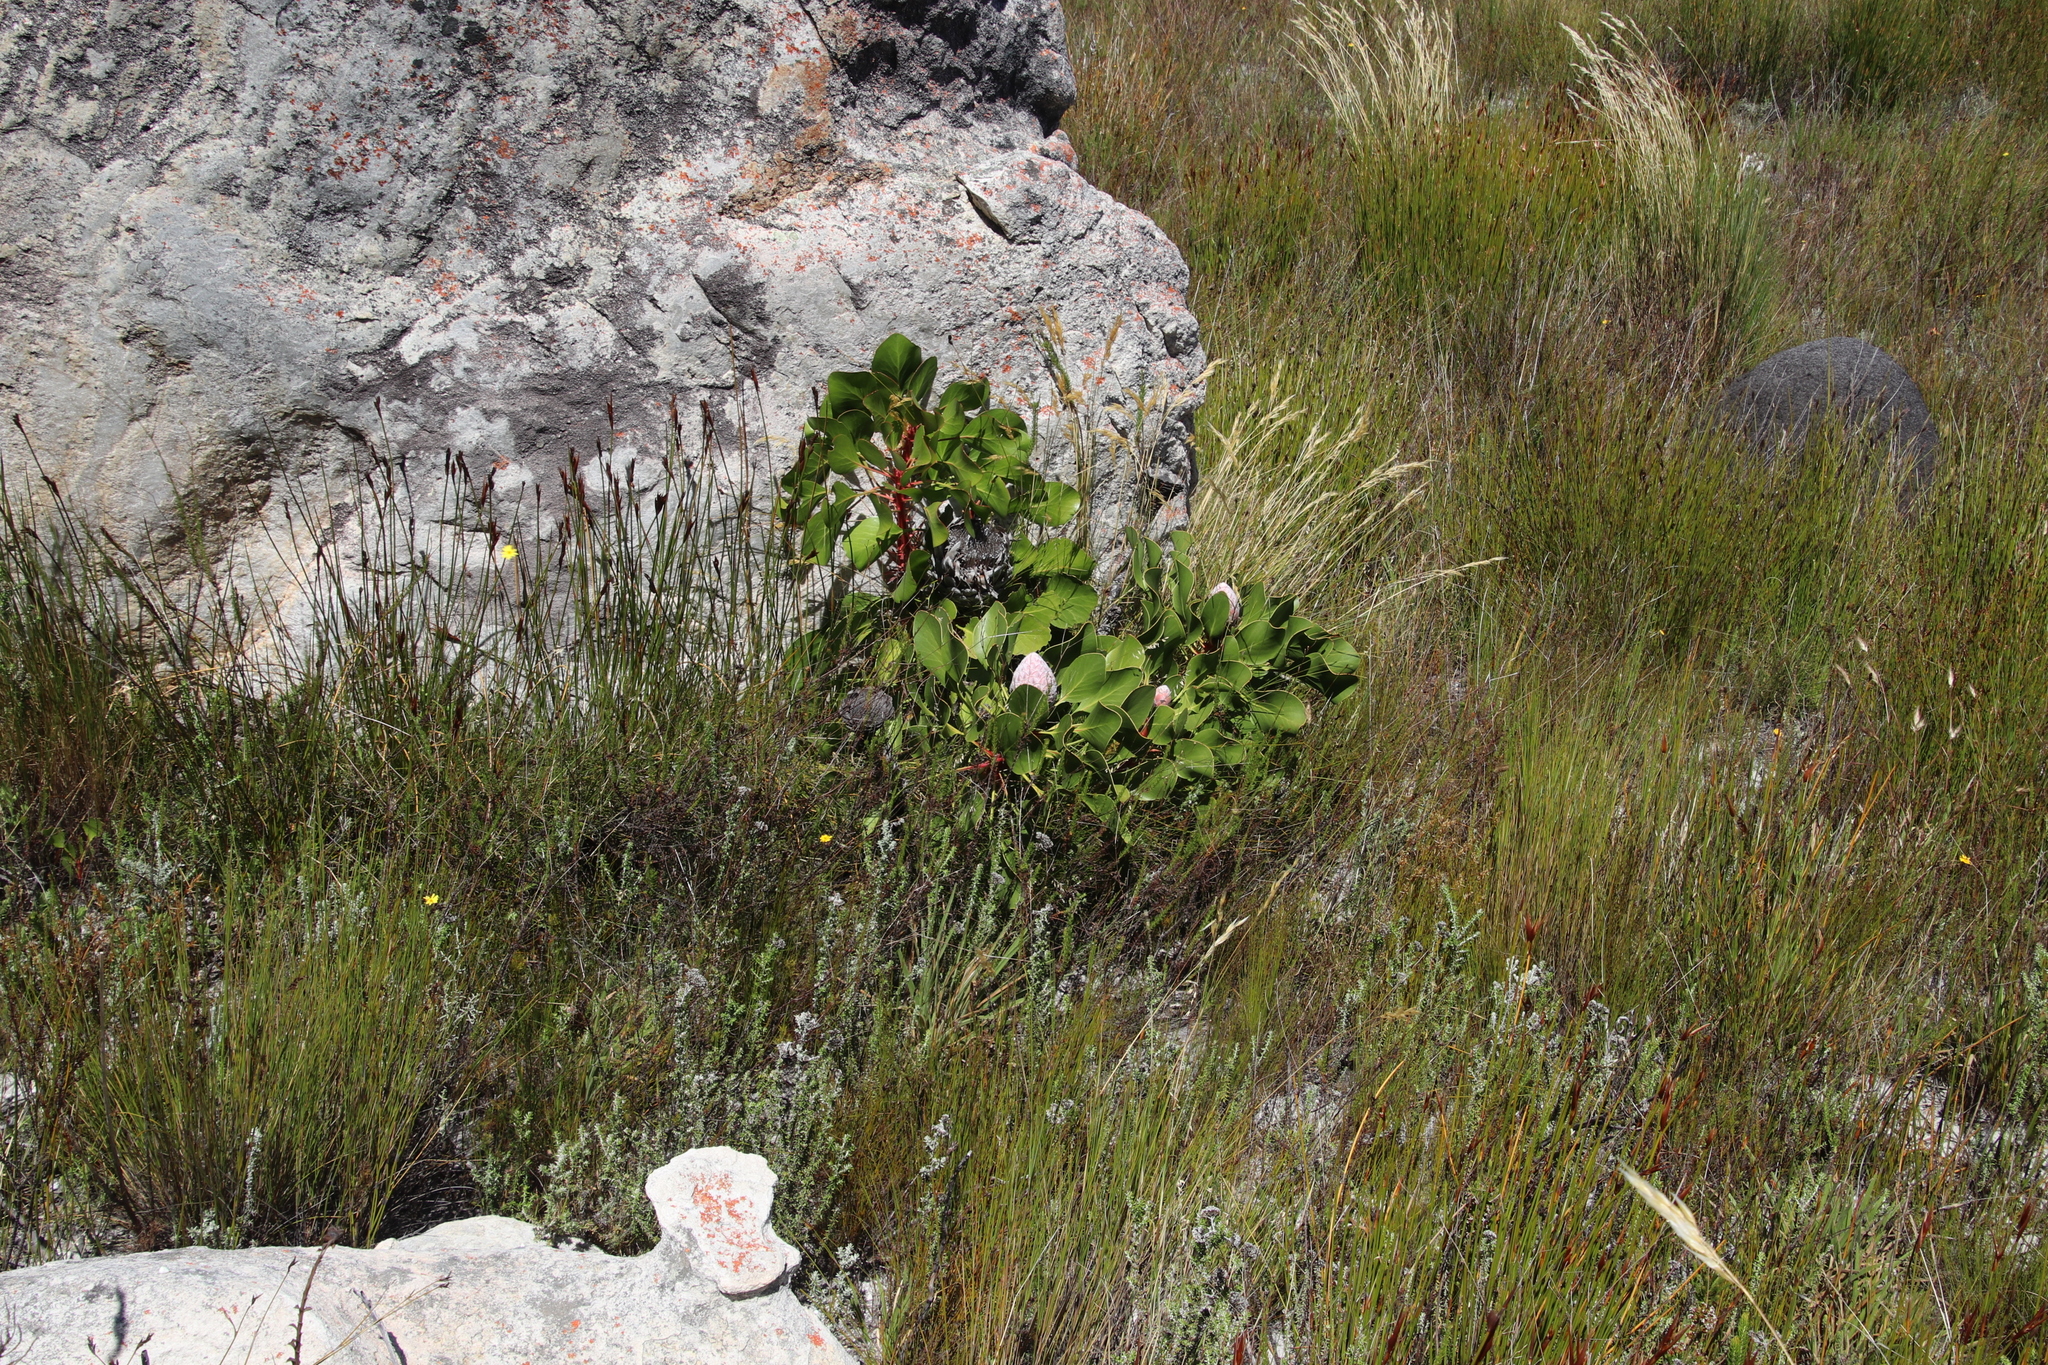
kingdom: Plantae
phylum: Tracheophyta
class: Magnoliopsida
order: Proteales
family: Proteaceae
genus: Protea
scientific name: Protea cynaroides
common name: King protea
